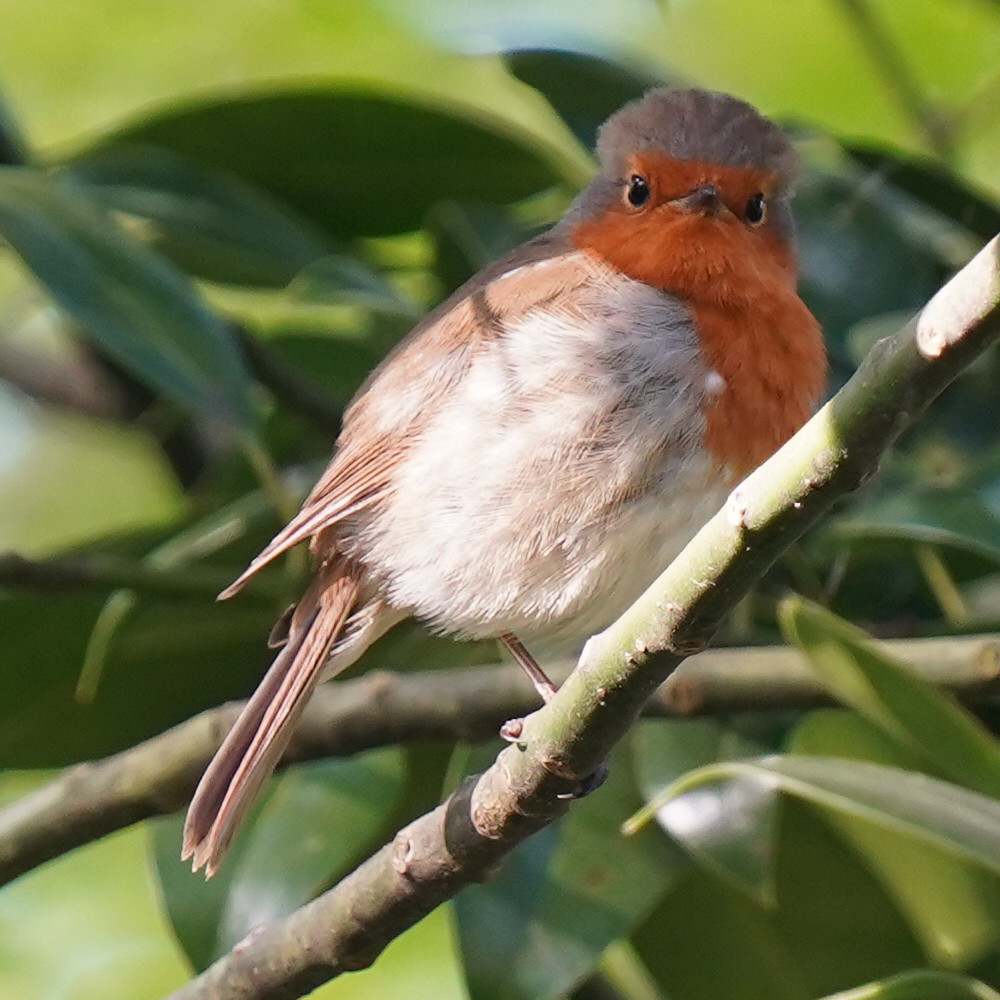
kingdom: Animalia
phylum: Chordata
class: Aves
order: Passeriformes
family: Muscicapidae
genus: Erithacus
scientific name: Erithacus rubecula
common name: European robin
